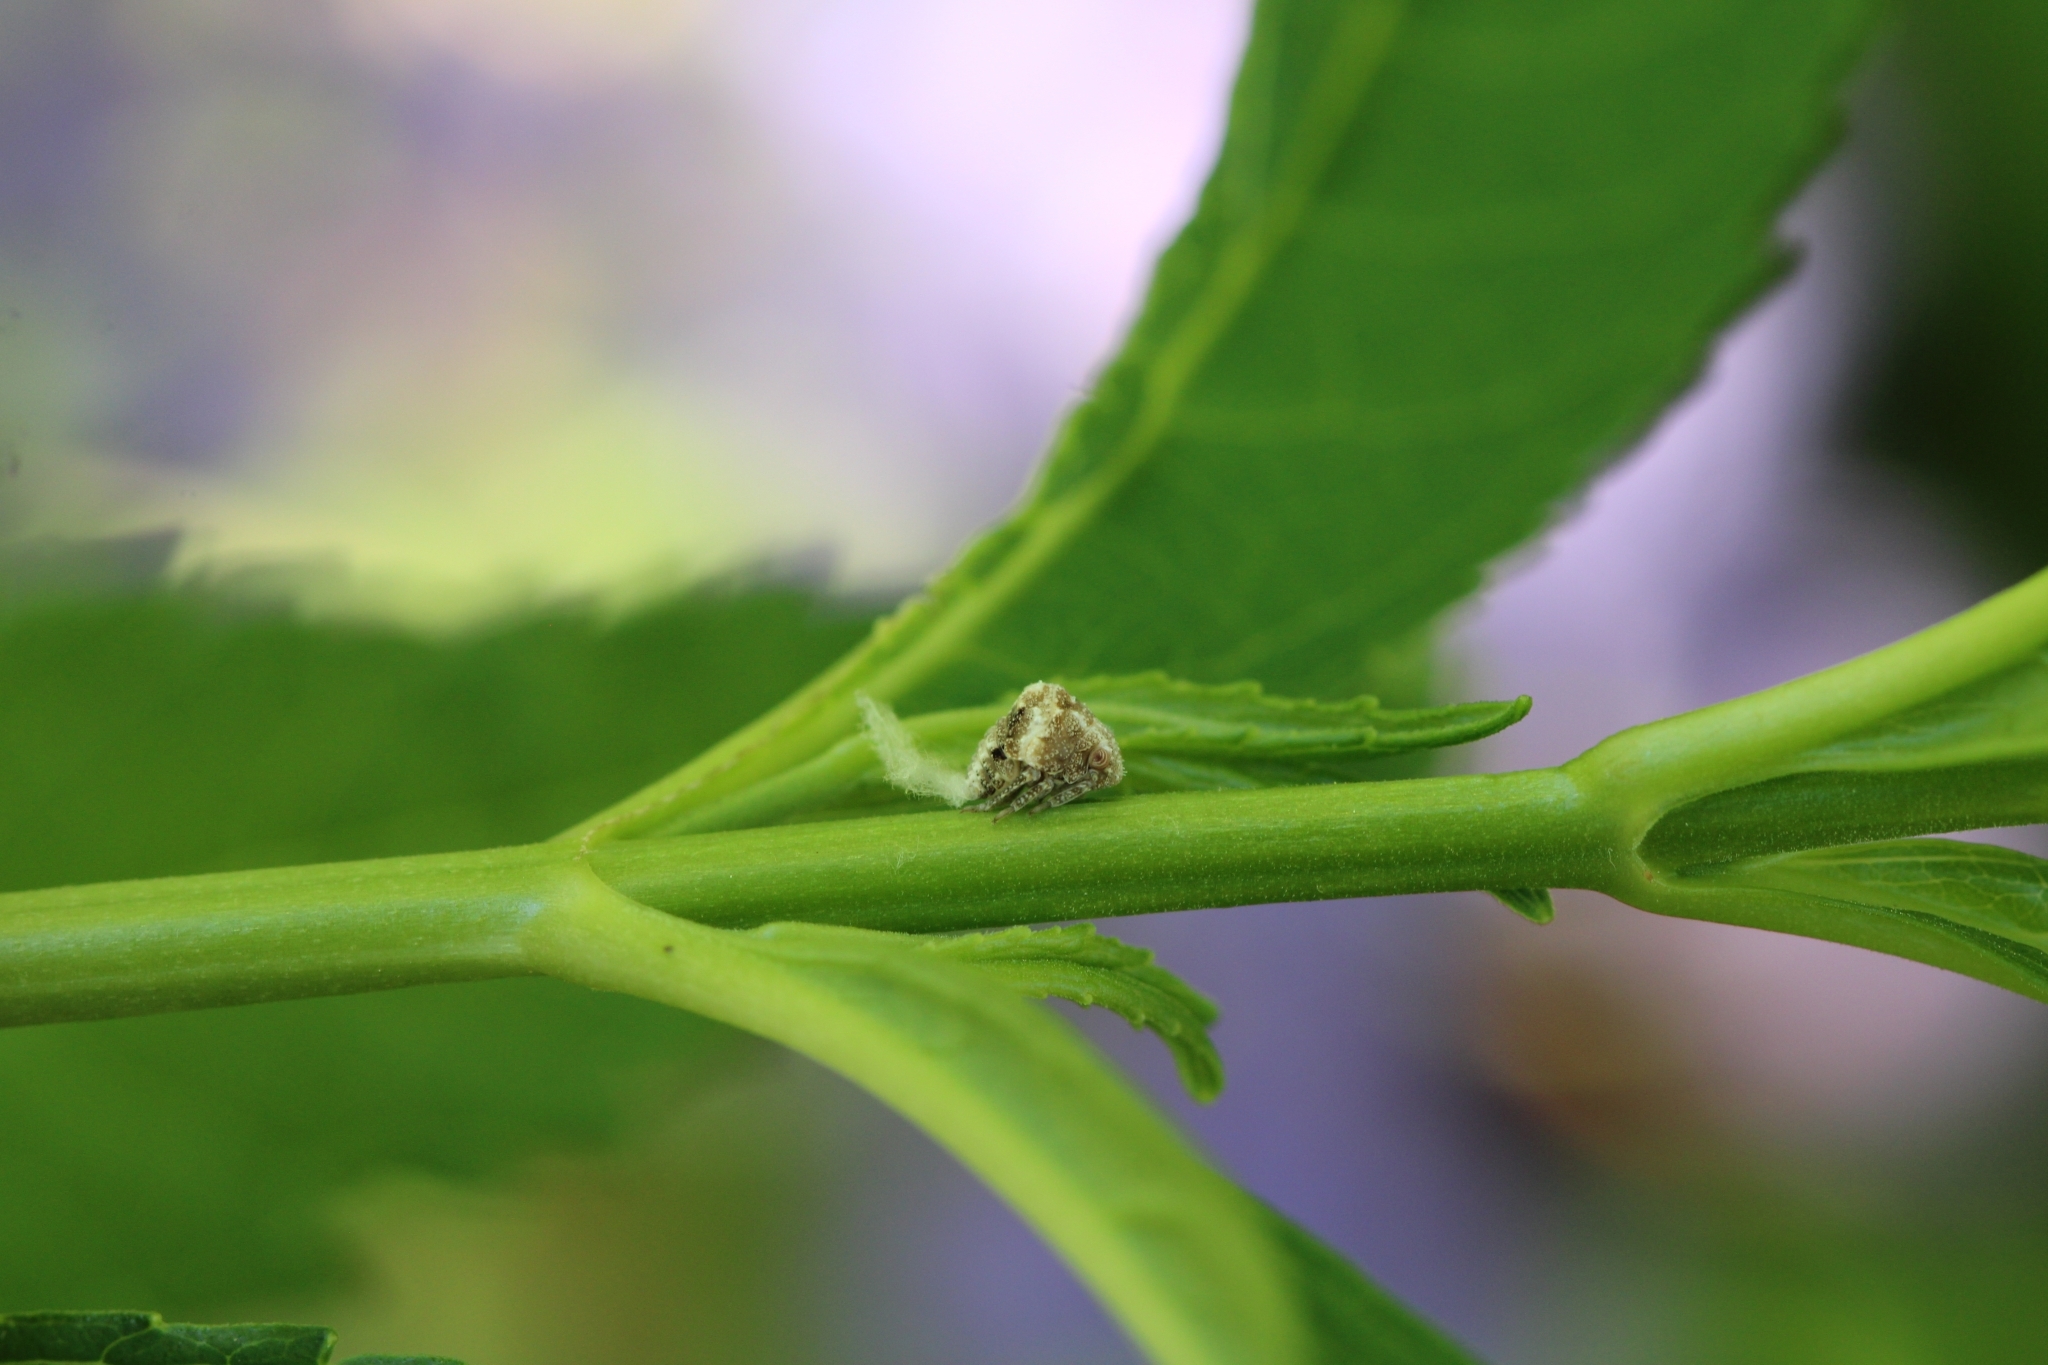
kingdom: Animalia
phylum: Arthropoda
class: Insecta
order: Hemiptera
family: Acanaloniidae
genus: Acanalonia
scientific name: Acanalonia bivittata
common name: Two-striped planthopper
